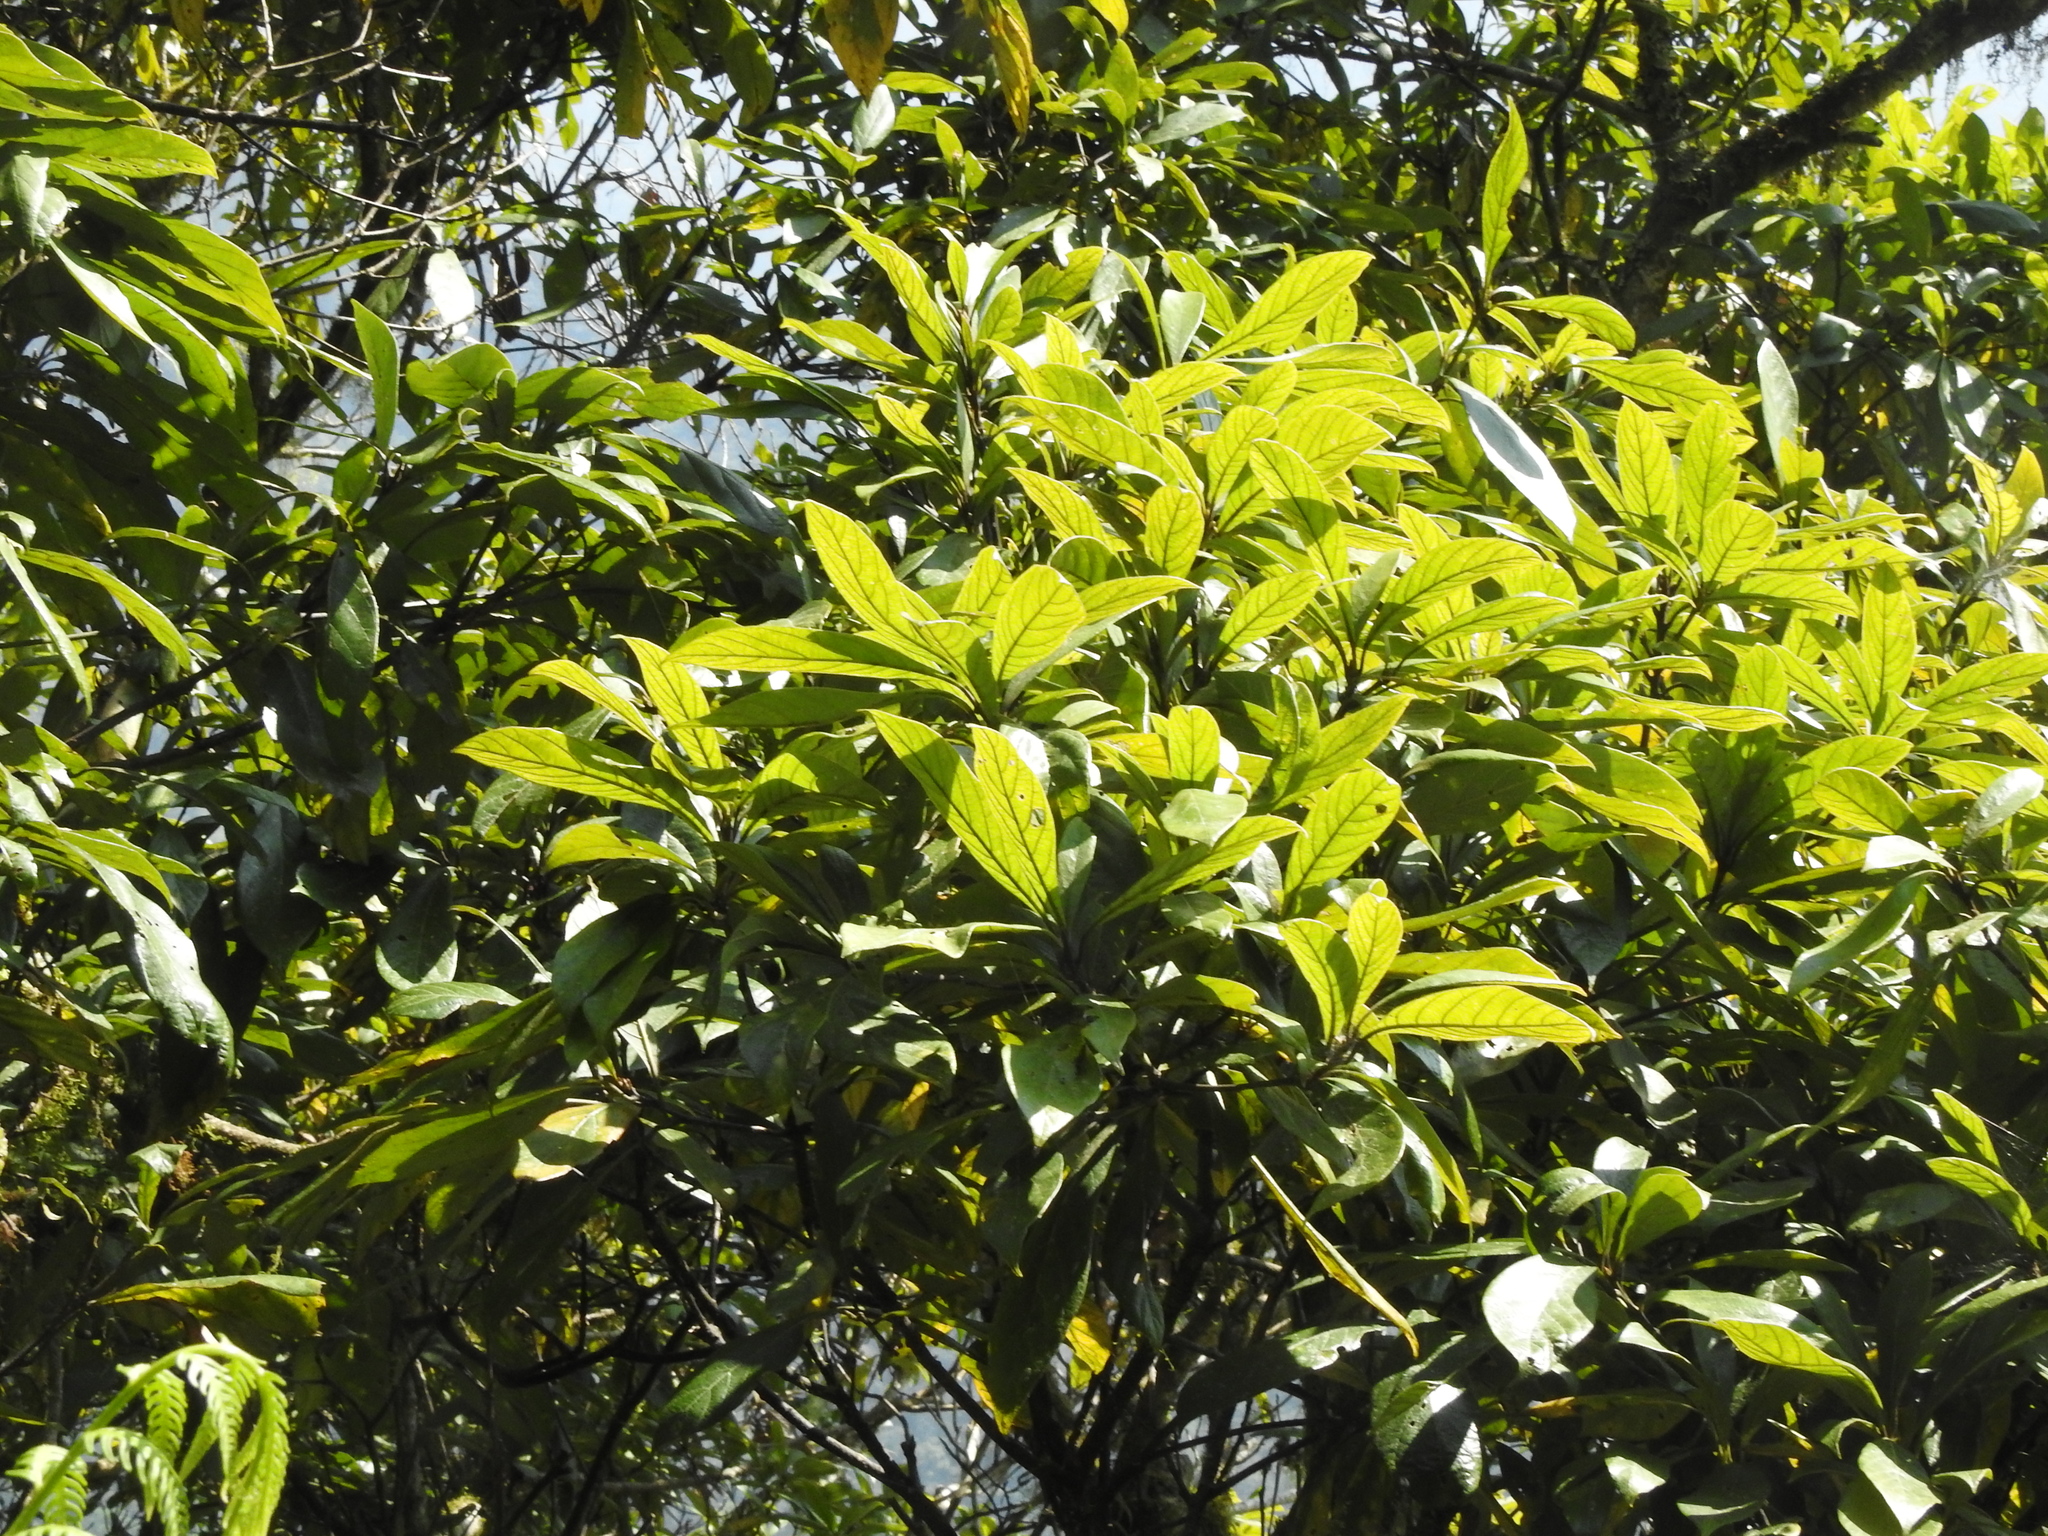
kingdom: Plantae
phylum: Tracheophyta
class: Magnoliopsida
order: Laurales
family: Lauraceae
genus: Phoebe
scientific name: Phoebe formosana
